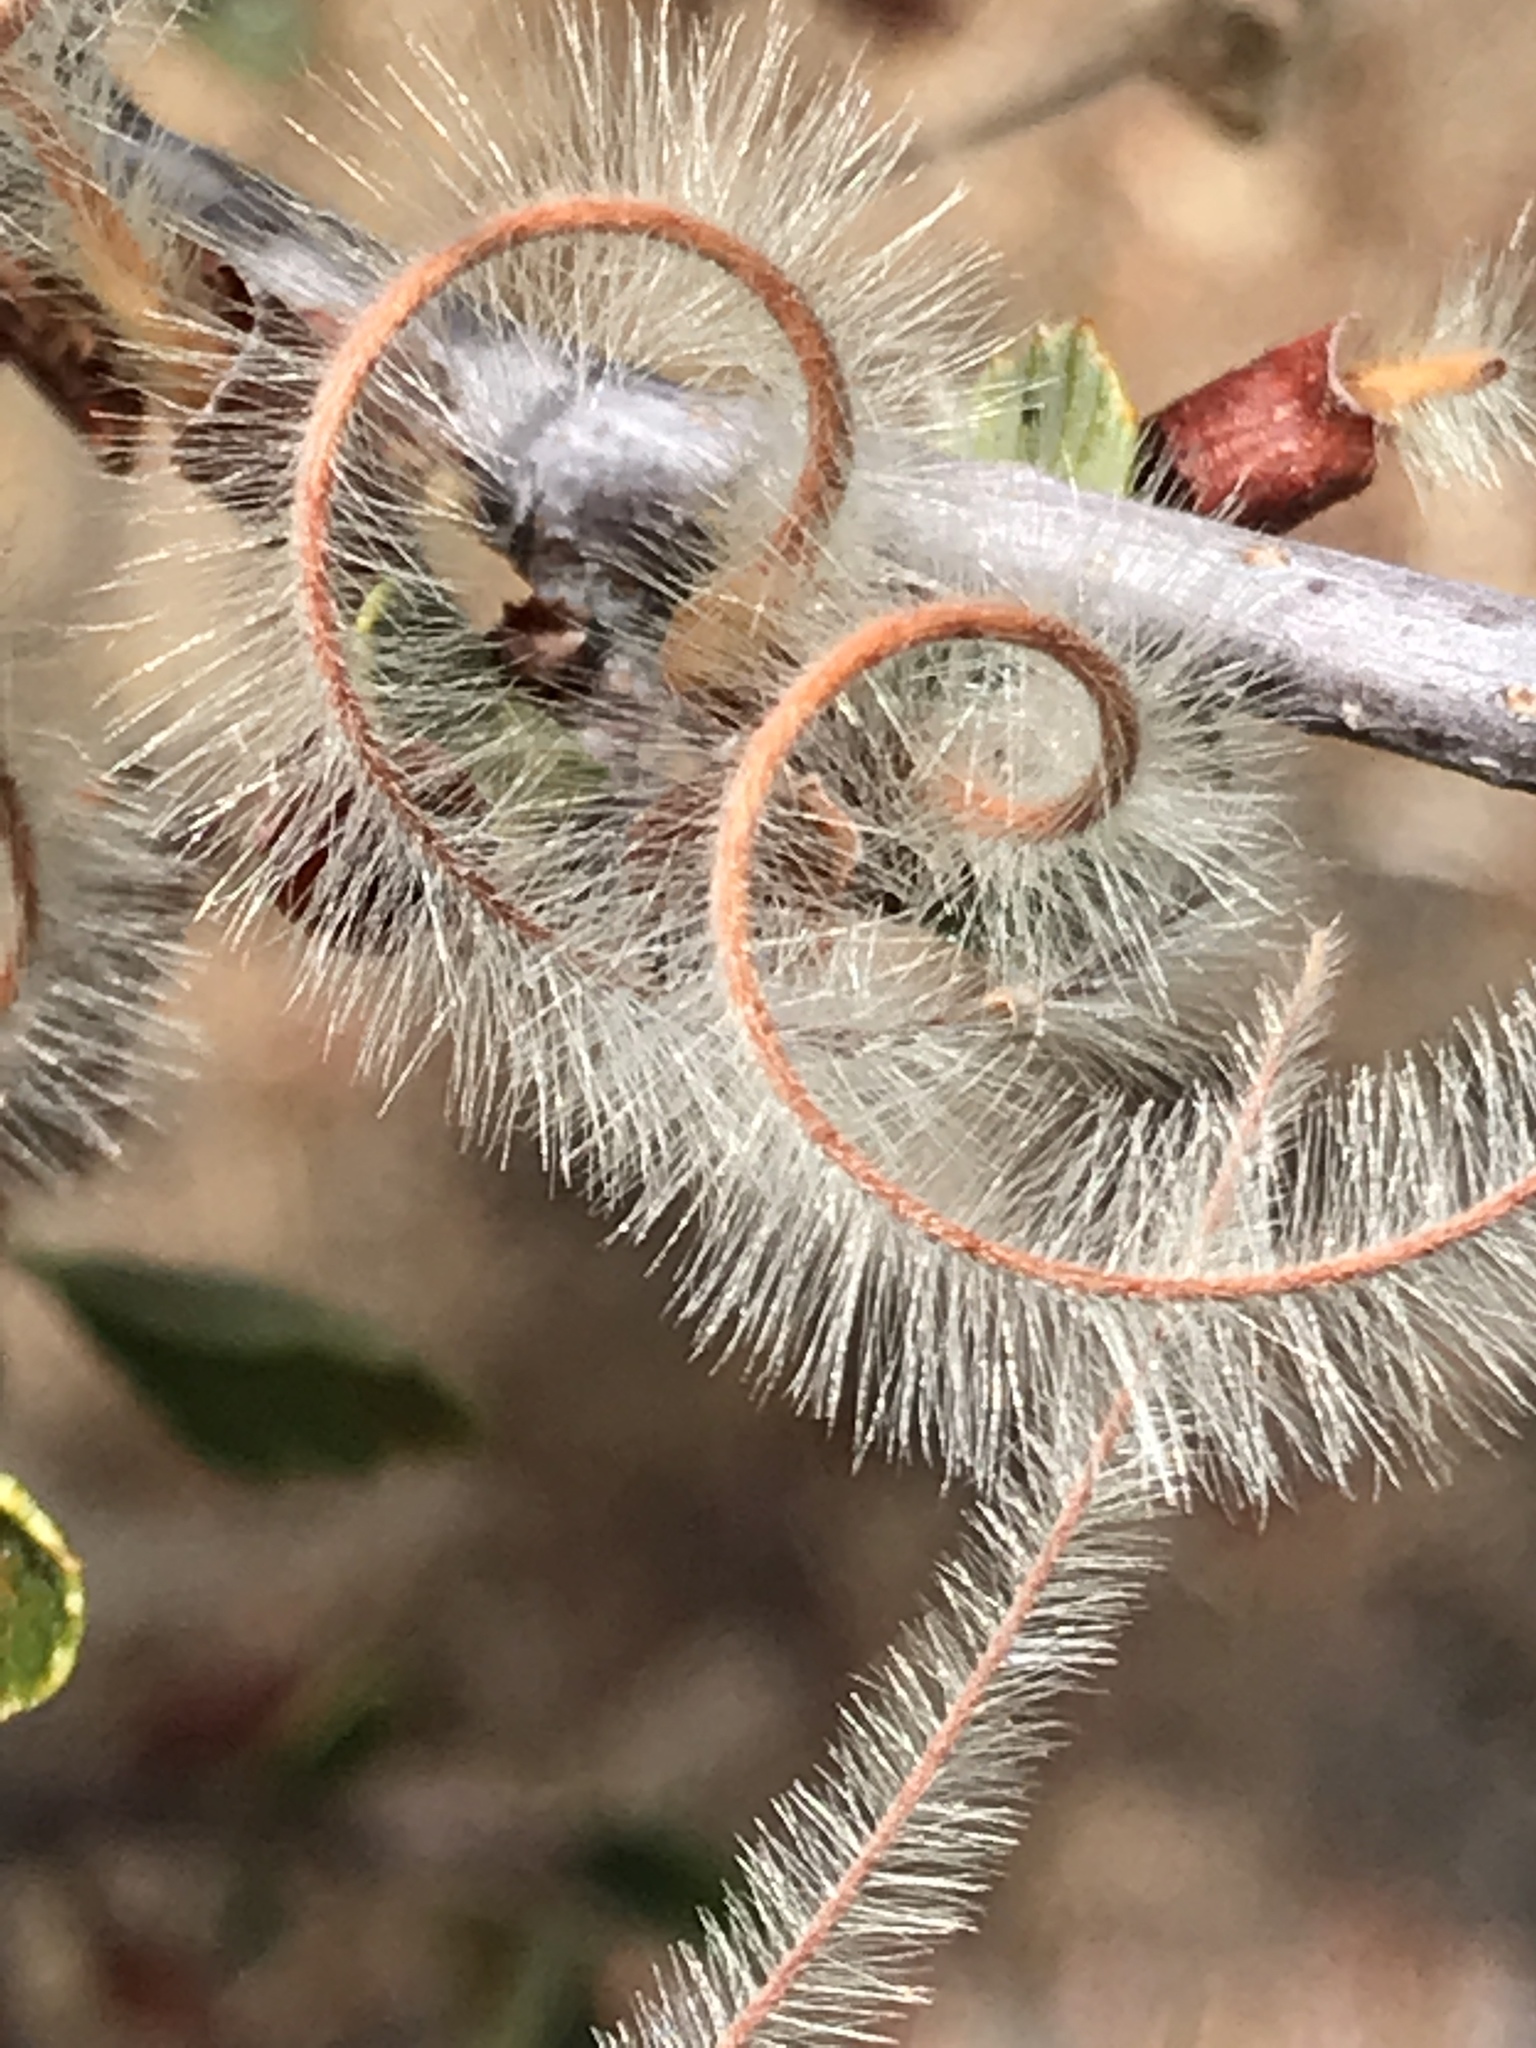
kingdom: Plantae
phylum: Tracheophyta
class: Magnoliopsida
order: Rosales
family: Rosaceae
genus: Cercocarpus
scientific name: Cercocarpus betuloides
